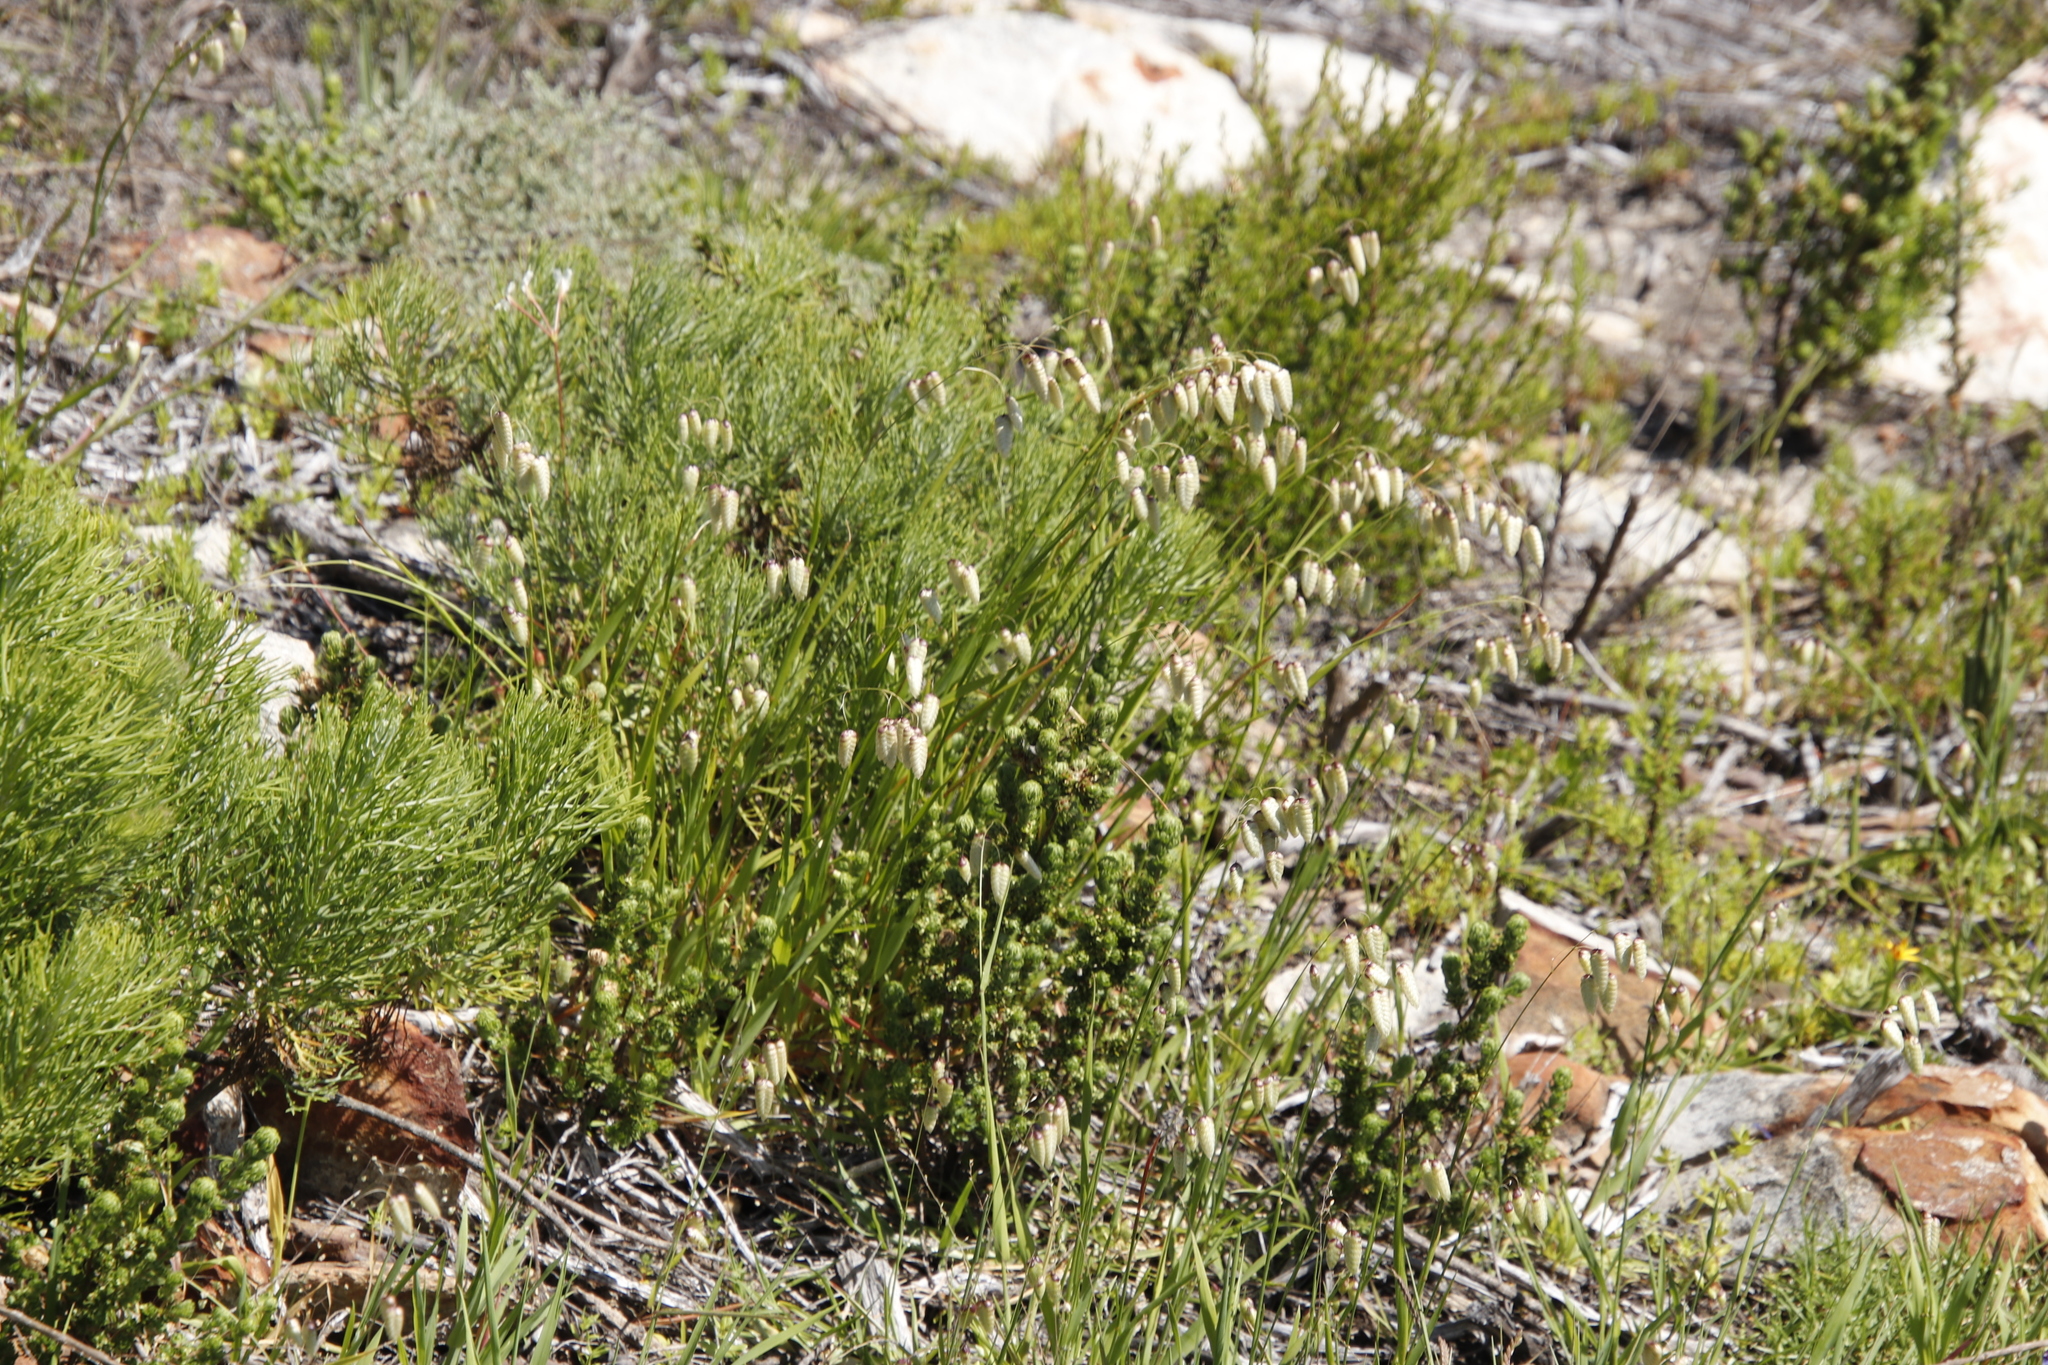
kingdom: Plantae
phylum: Tracheophyta
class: Liliopsida
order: Poales
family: Poaceae
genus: Briza
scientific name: Briza maxima
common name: Big quakinggrass
